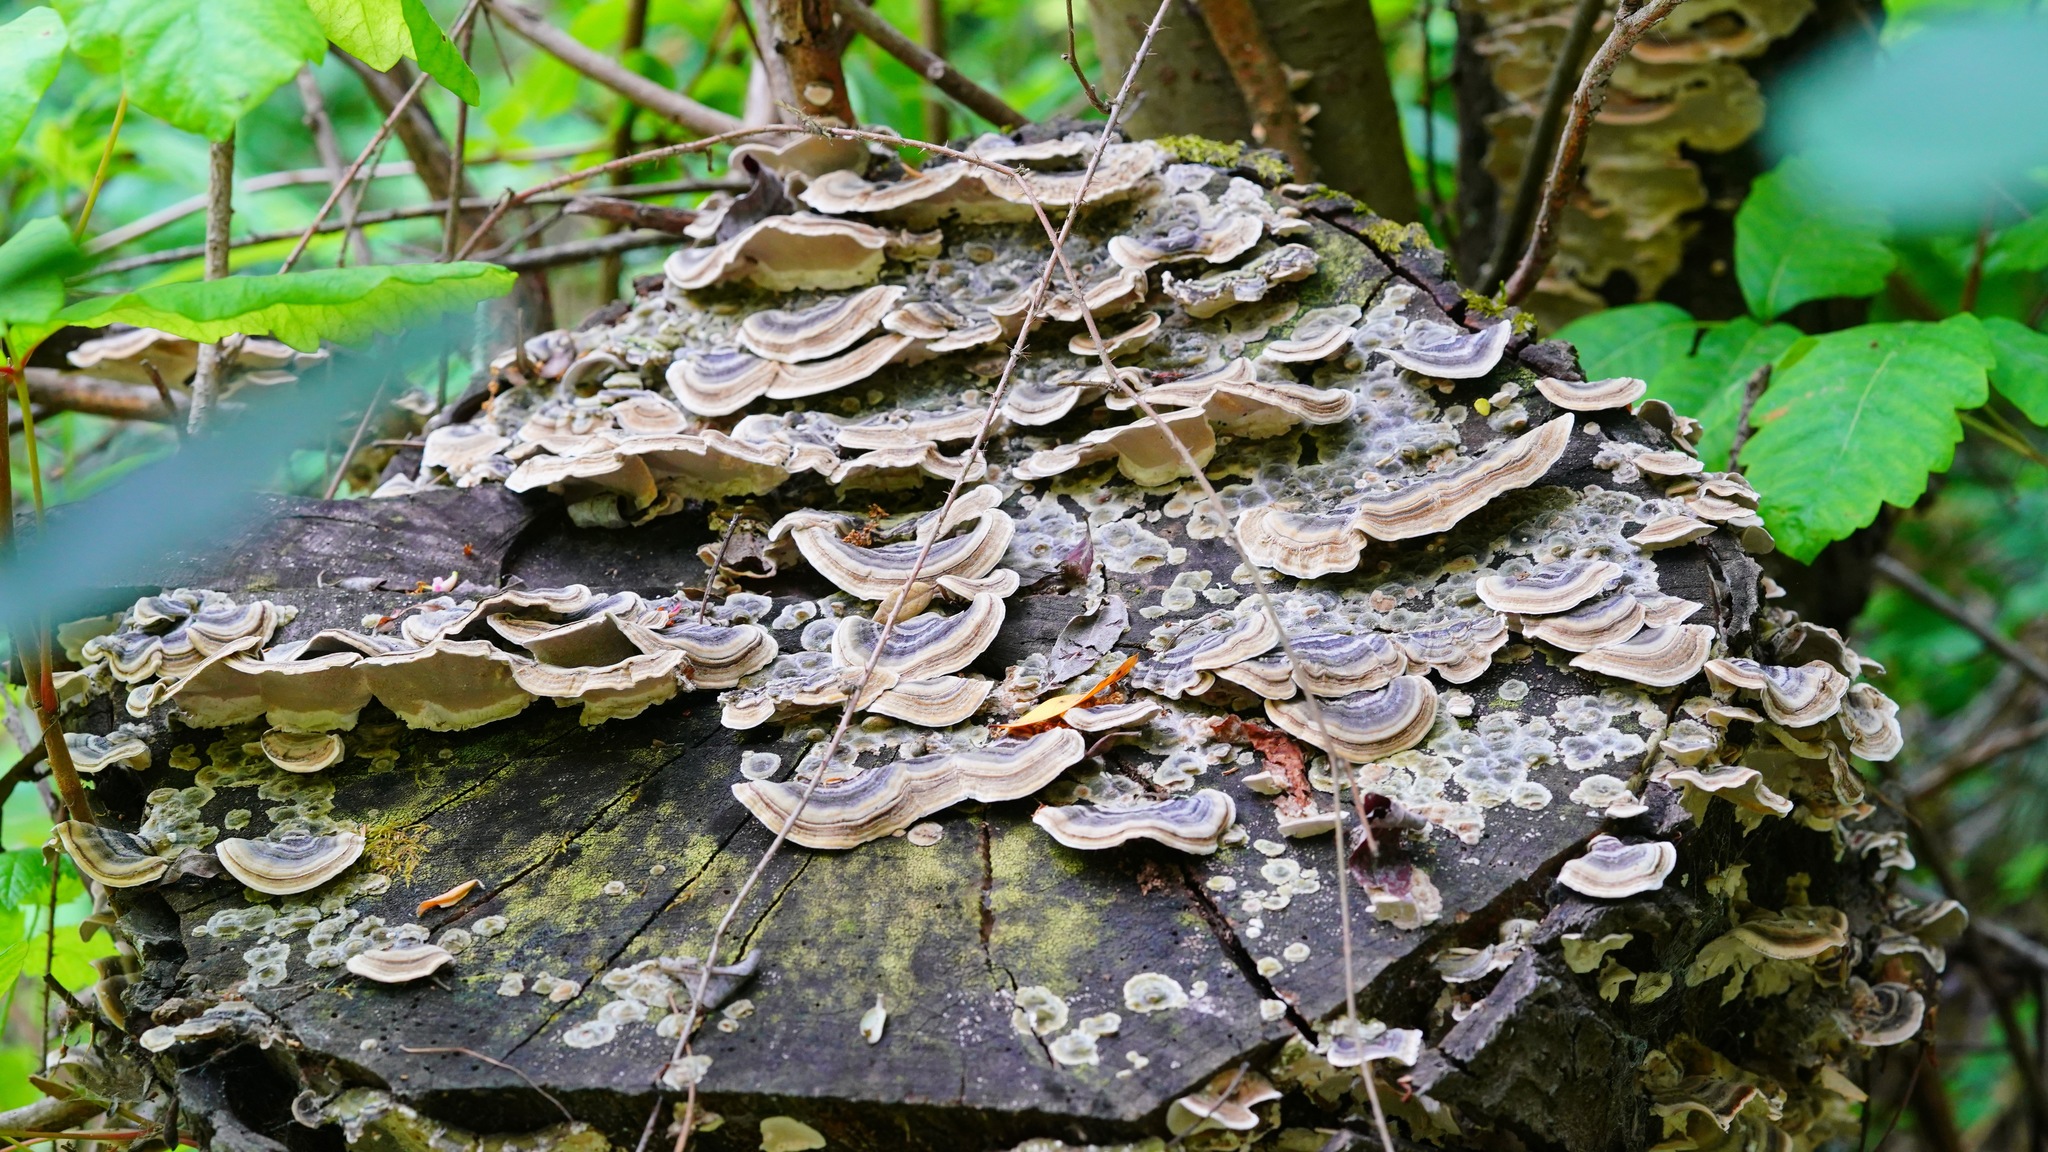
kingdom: Fungi
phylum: Basidiomycota
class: Agaricomycetes
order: Polyporales
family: Polyporaceae
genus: Trametes
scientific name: Trametes versicolor
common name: Turkeytail
